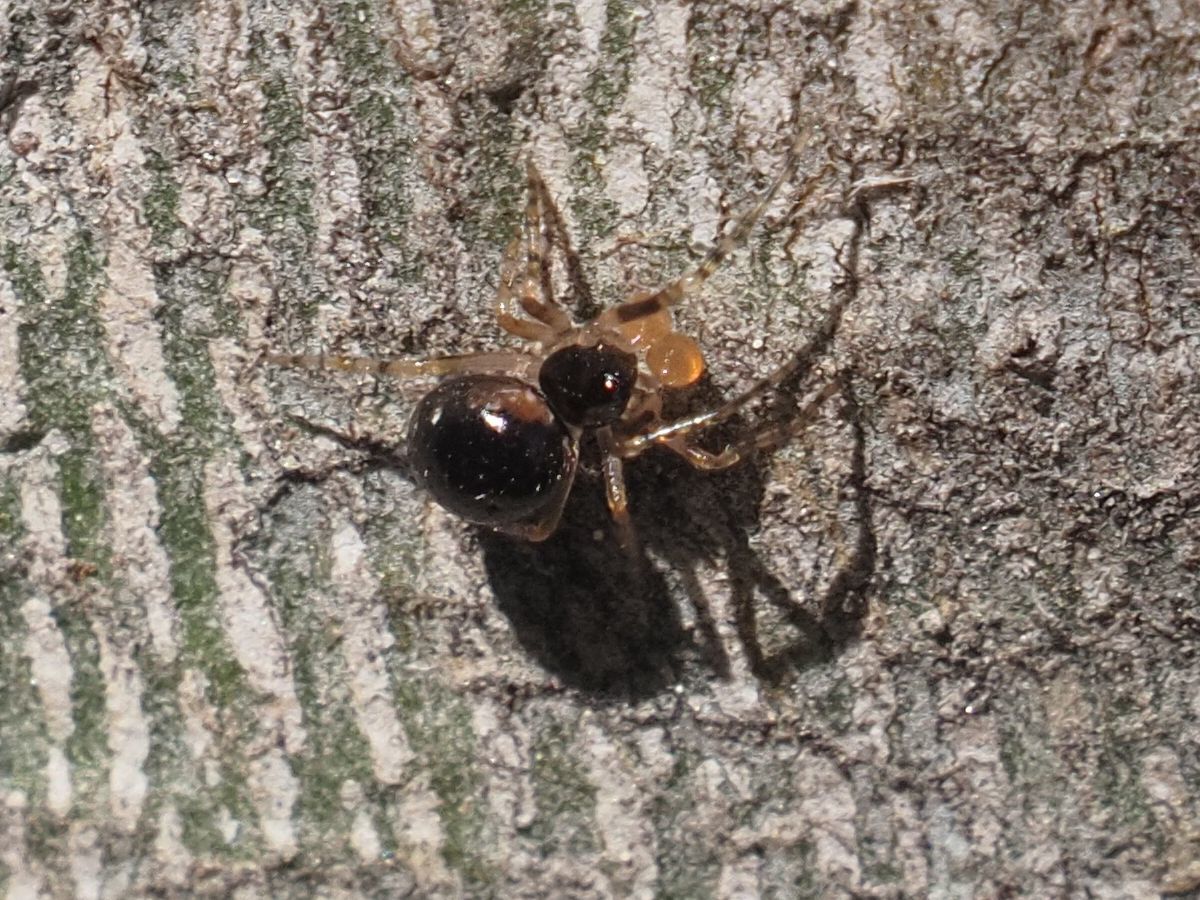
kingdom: Animalia
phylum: Arthropoda
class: Arachnida
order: Araneae
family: Theridiidae
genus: Sardinidion
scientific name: Sardinidion blackwalli
